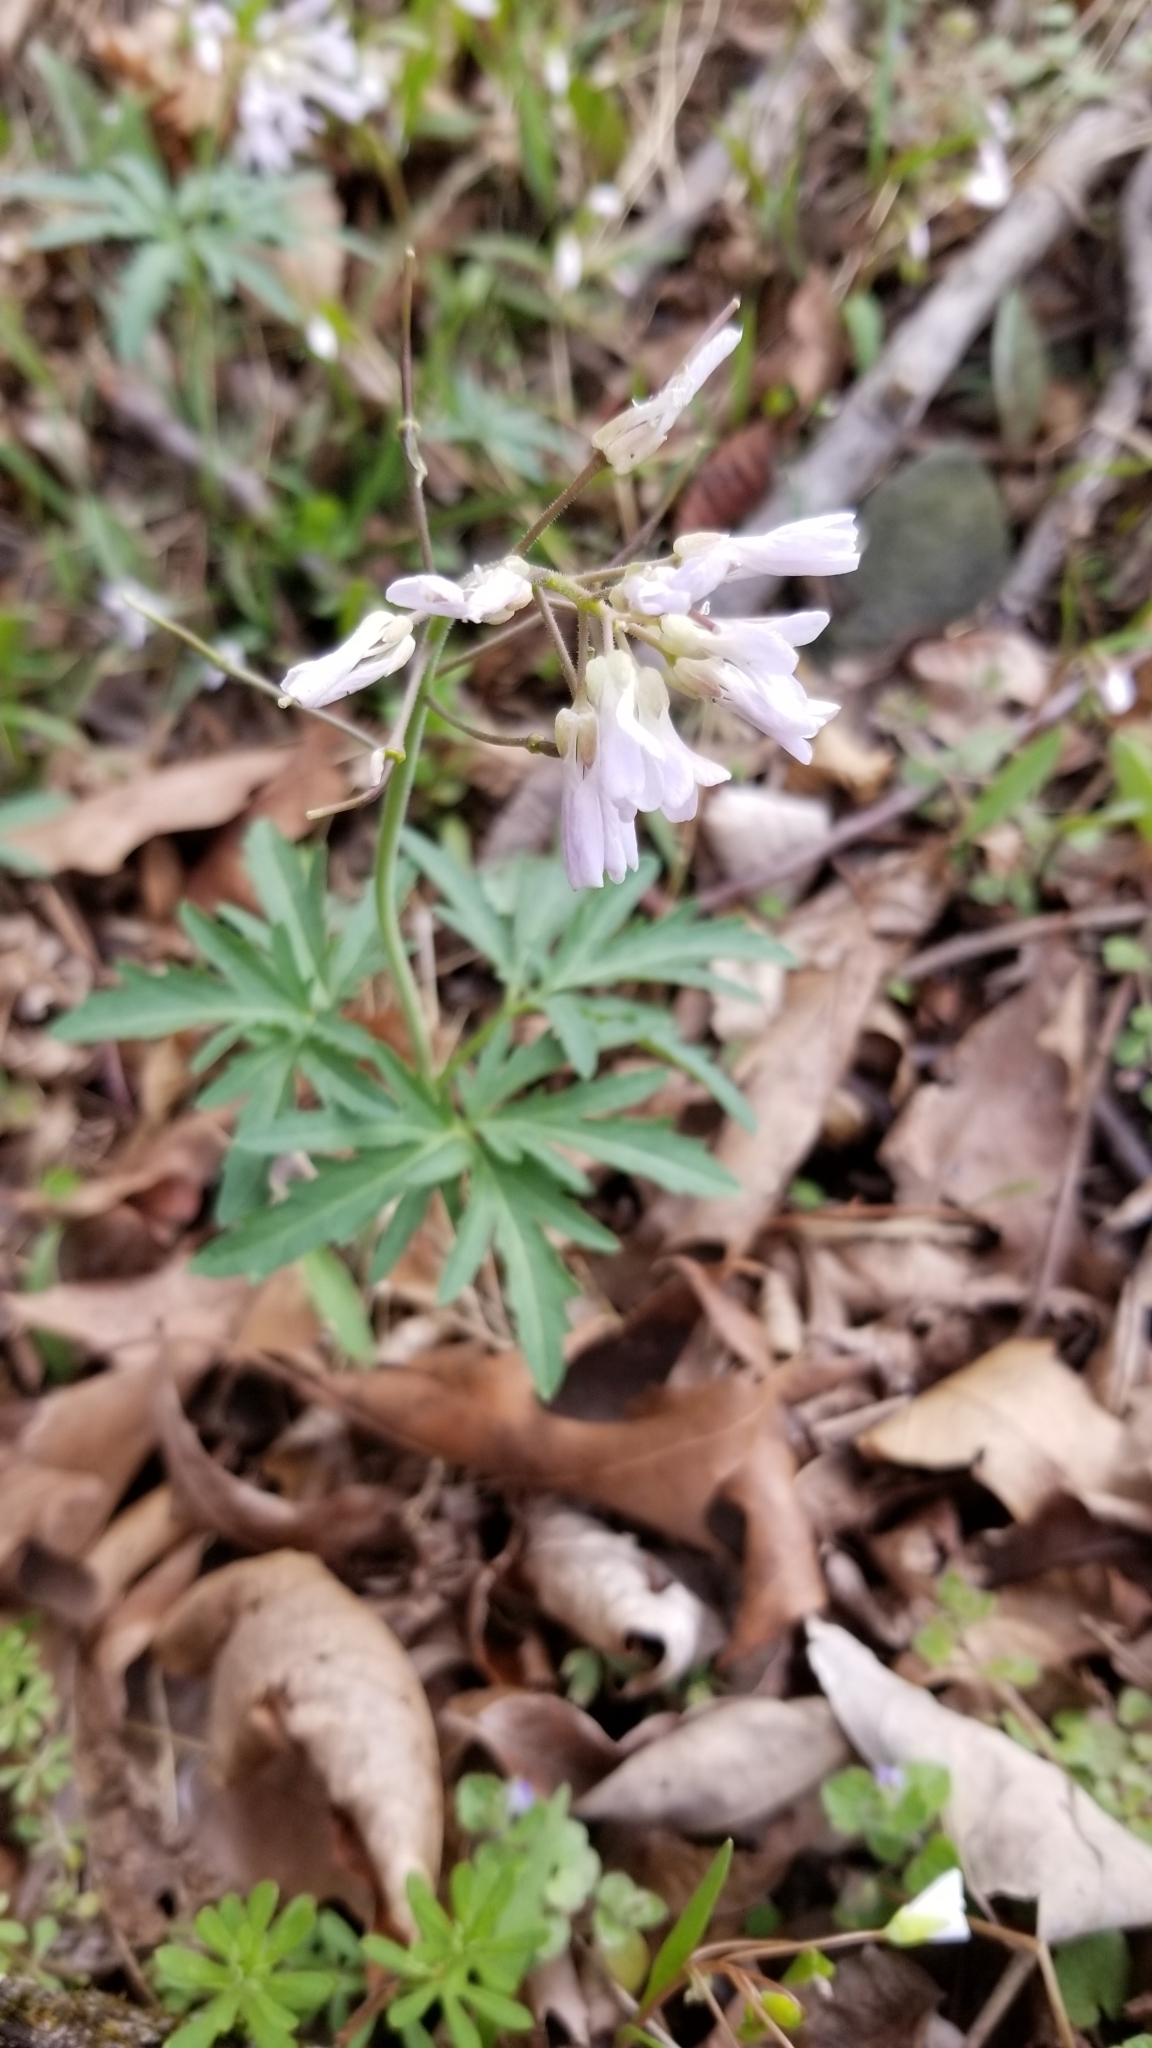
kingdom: Plantae
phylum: Tracheophyta
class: Magnoliopsida
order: Brassicales
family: Brassicaceae
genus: Cardamine
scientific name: Cardamine concatenata
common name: Cut-leaf toothcup
